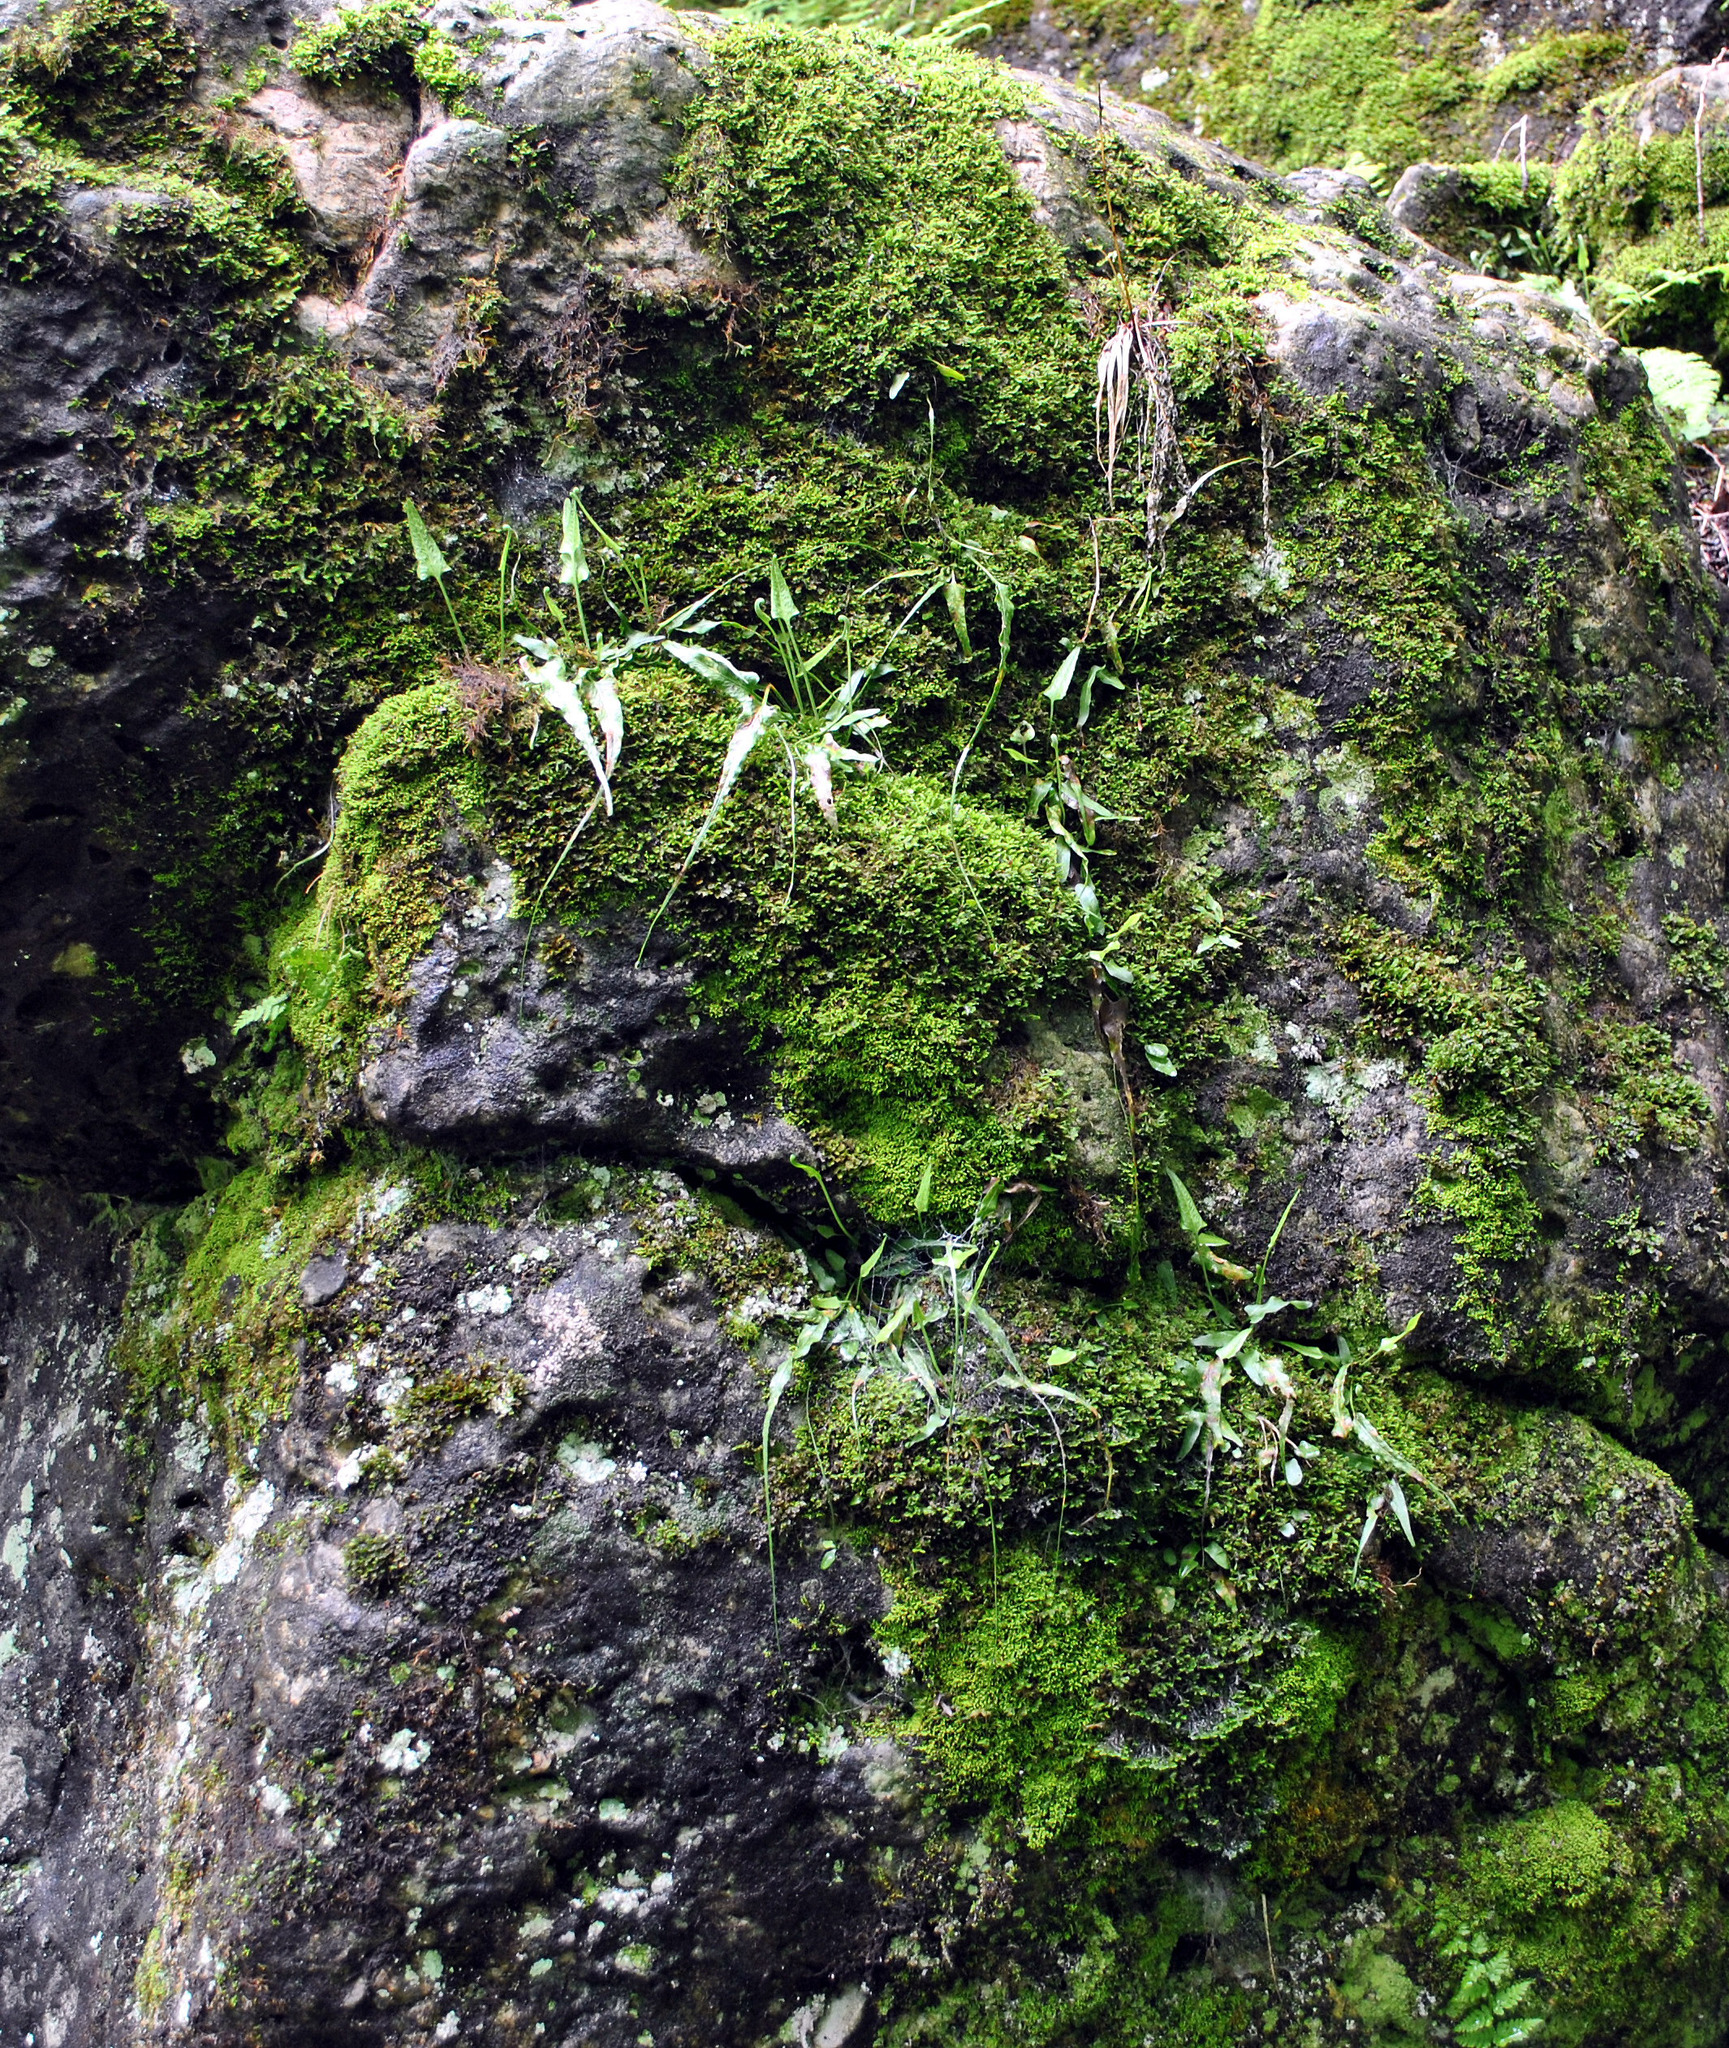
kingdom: Plantae
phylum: Tracheophyta
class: Polypodiopsida
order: Polypodiales
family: Aspleniaceae
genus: Asplenium
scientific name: Asplenium rhizophyllum
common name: Walking fern
